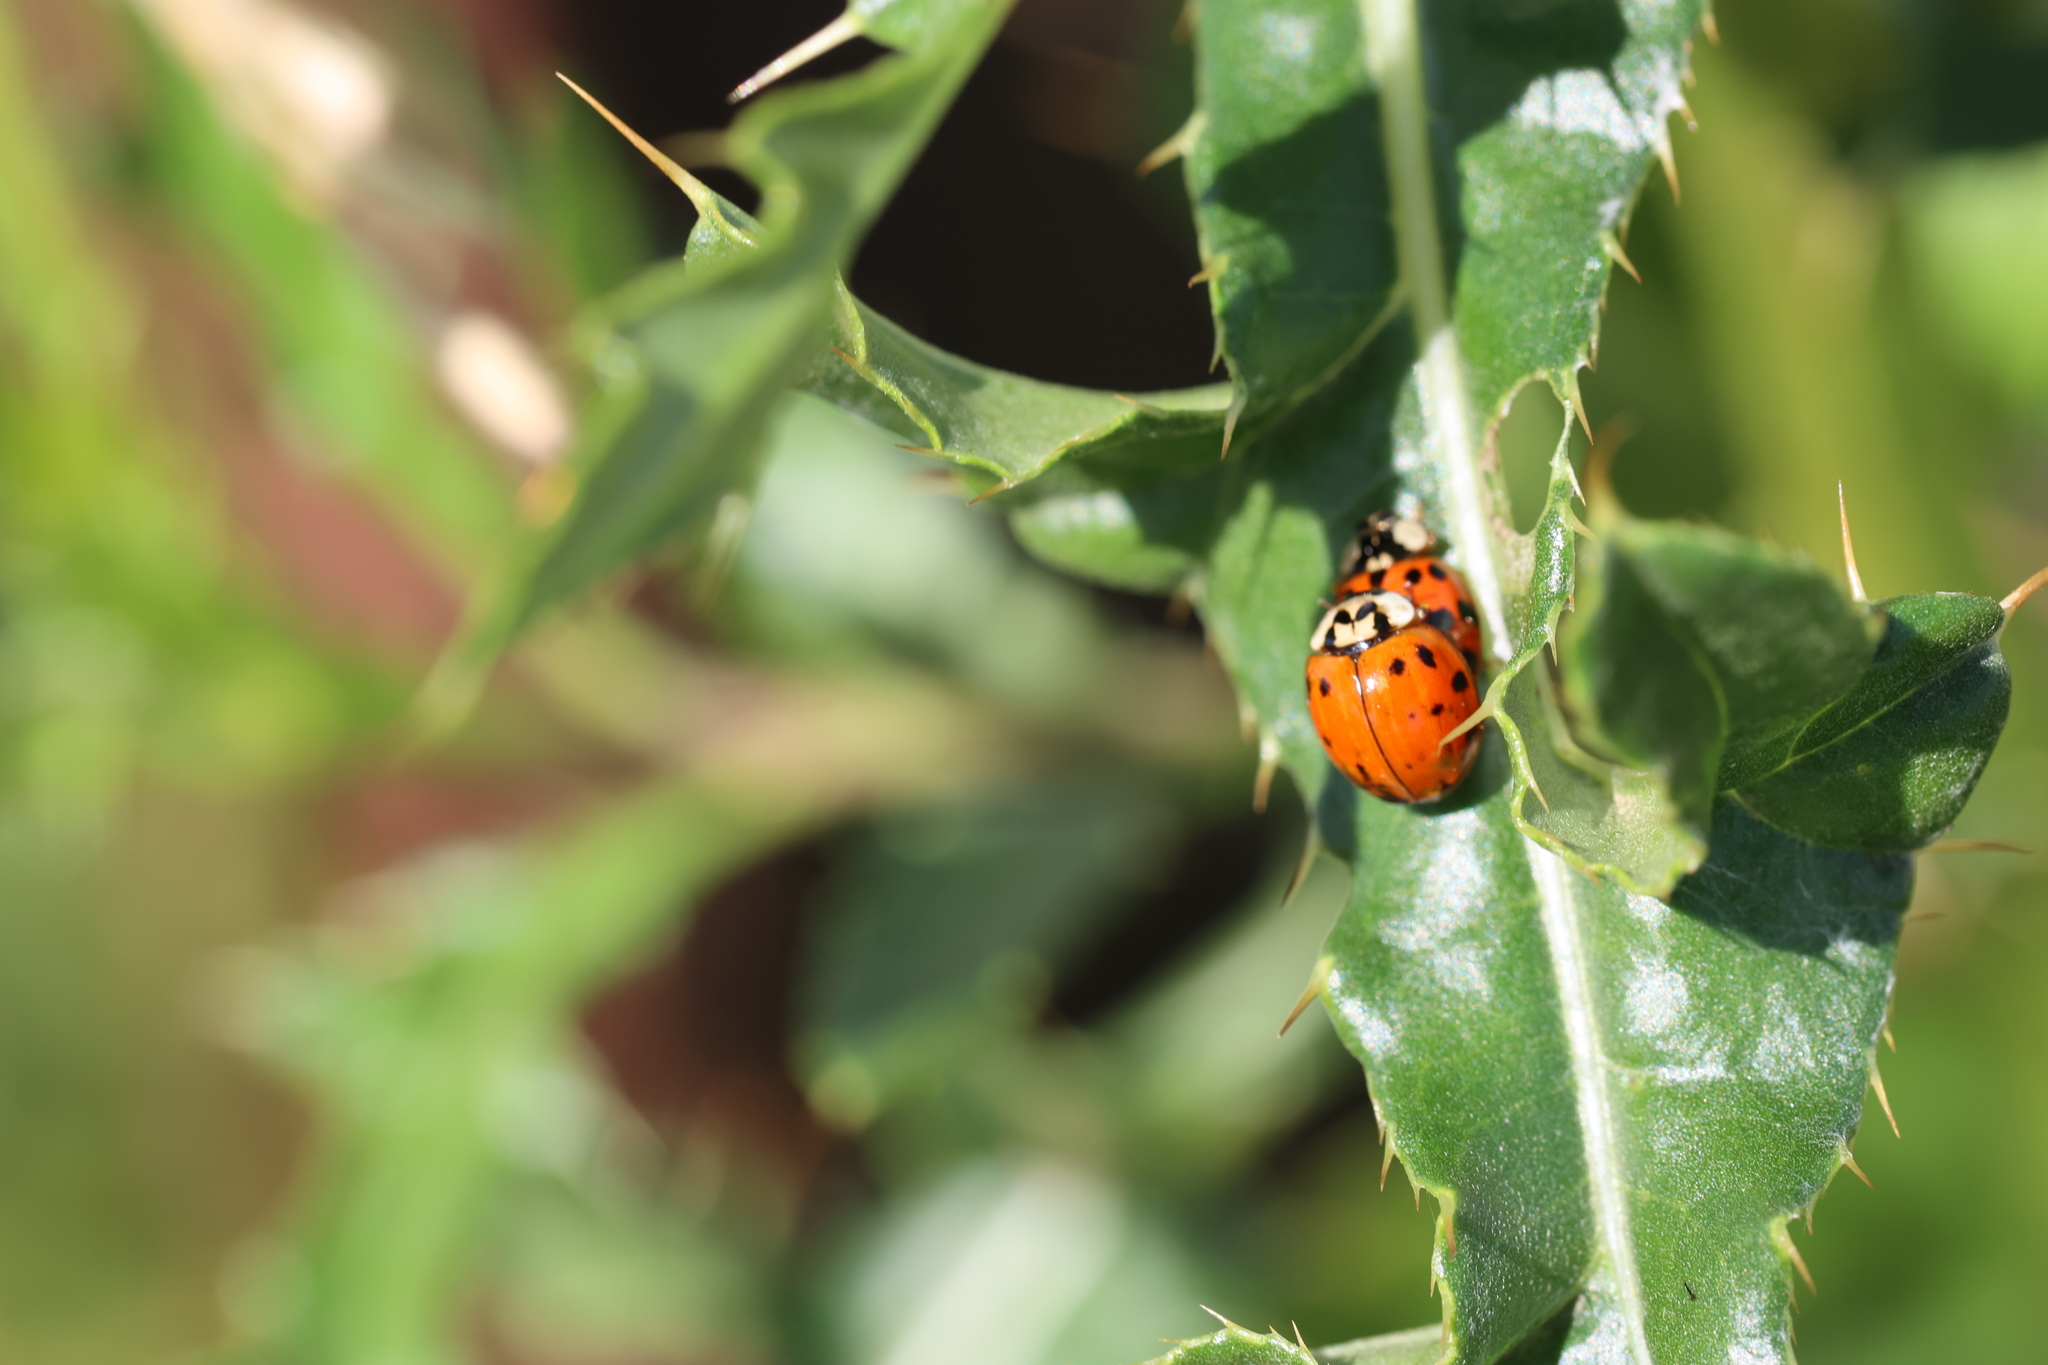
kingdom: Animalia
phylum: Arthropoda
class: Insecta
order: Coleoptera
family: Coccinellidae
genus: Harmonia
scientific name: Harmonia axyridis
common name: Harlequin ladybird
